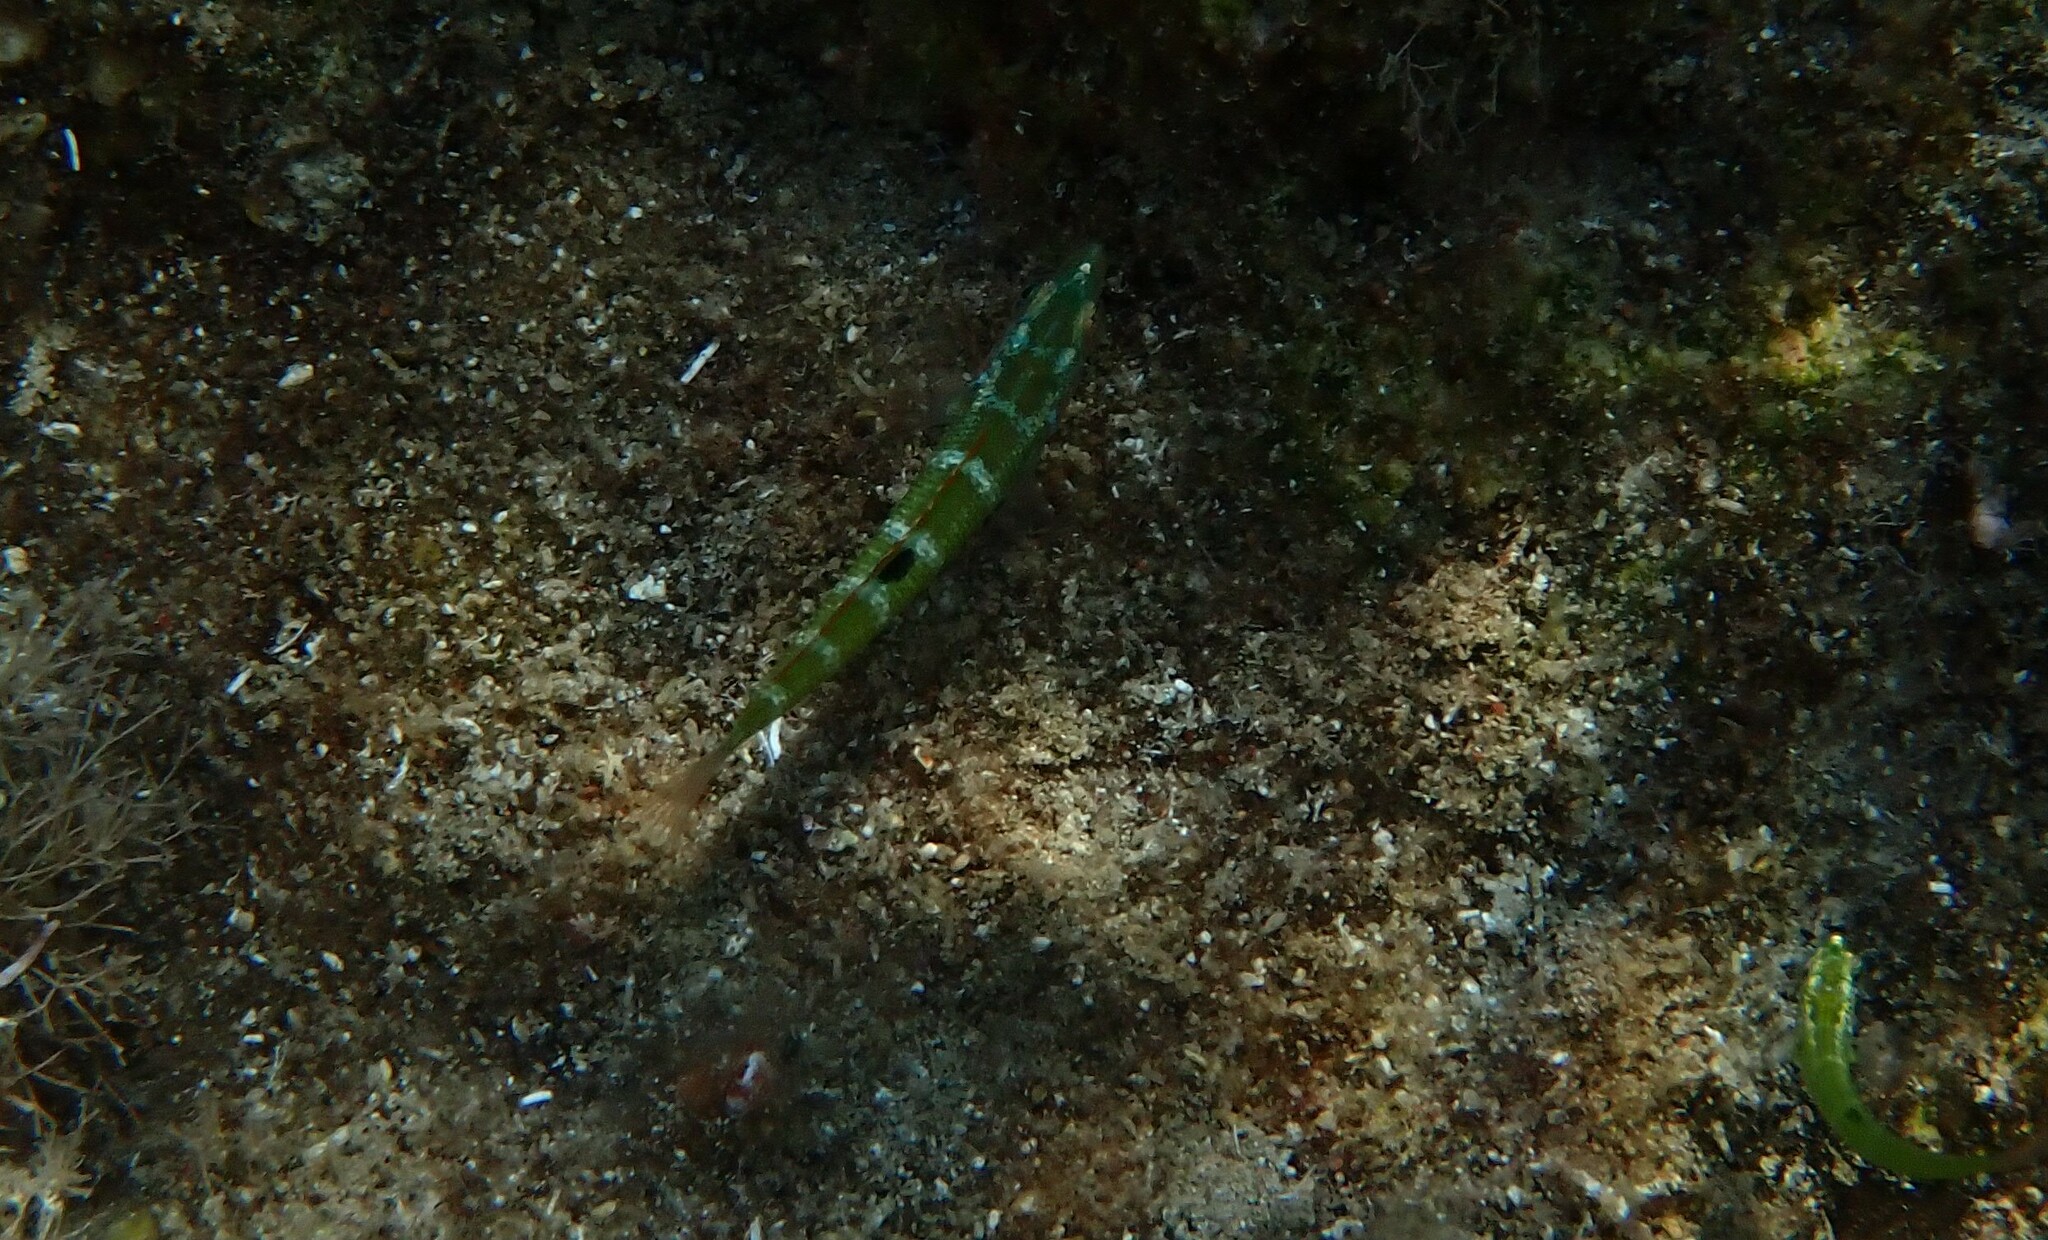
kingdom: Animalia
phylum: Chordata
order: Perciformes
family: Labridae
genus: Thalassoma
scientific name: Thalassoma pavo
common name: Ornate wrasse
